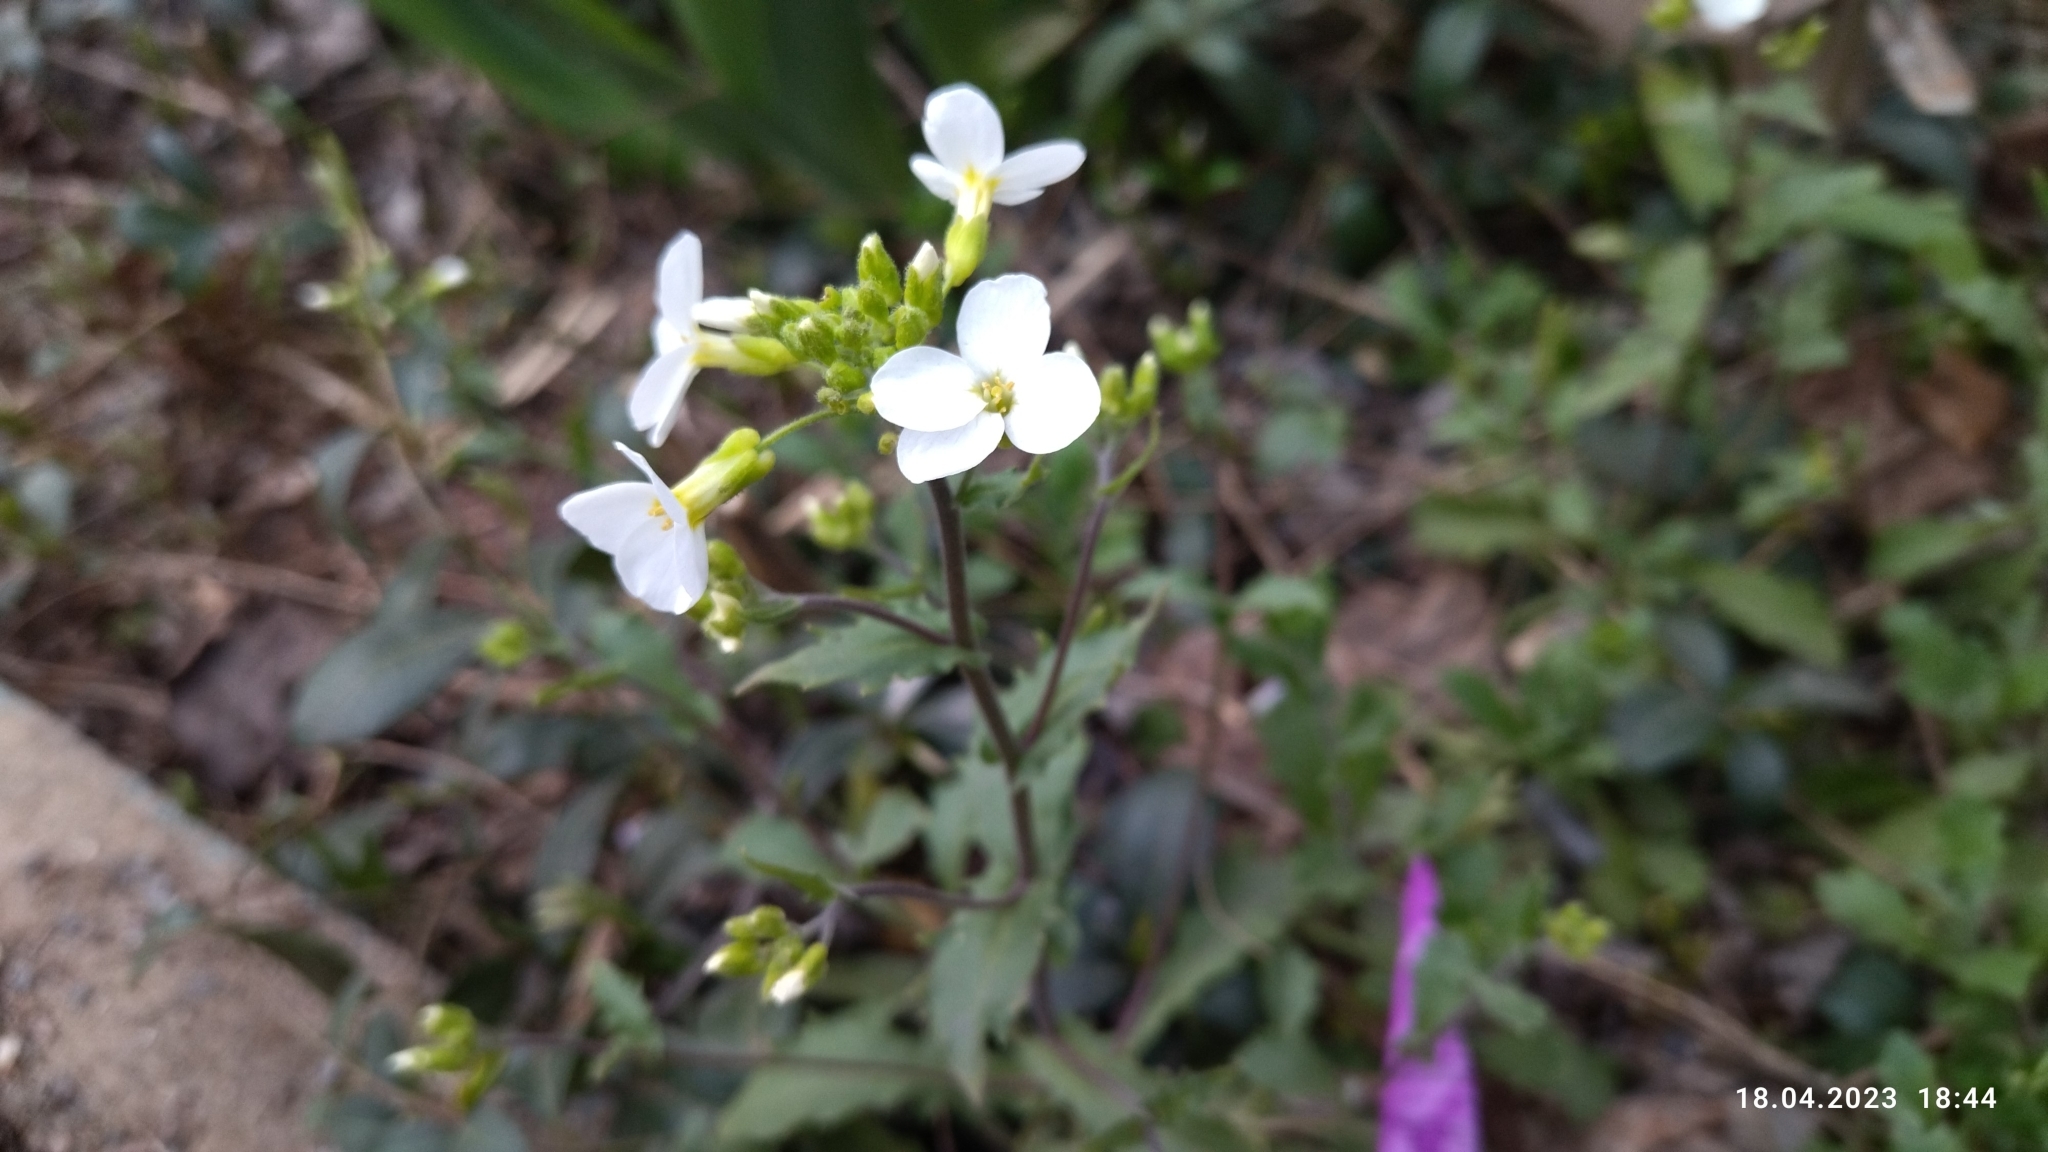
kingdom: Plantae
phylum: Tracheophyta
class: Magnoliopsida
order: Brassicales
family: Brassicaceae
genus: Arabidopsis
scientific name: Arabidopsis arenosa
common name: Sand rock-cress
